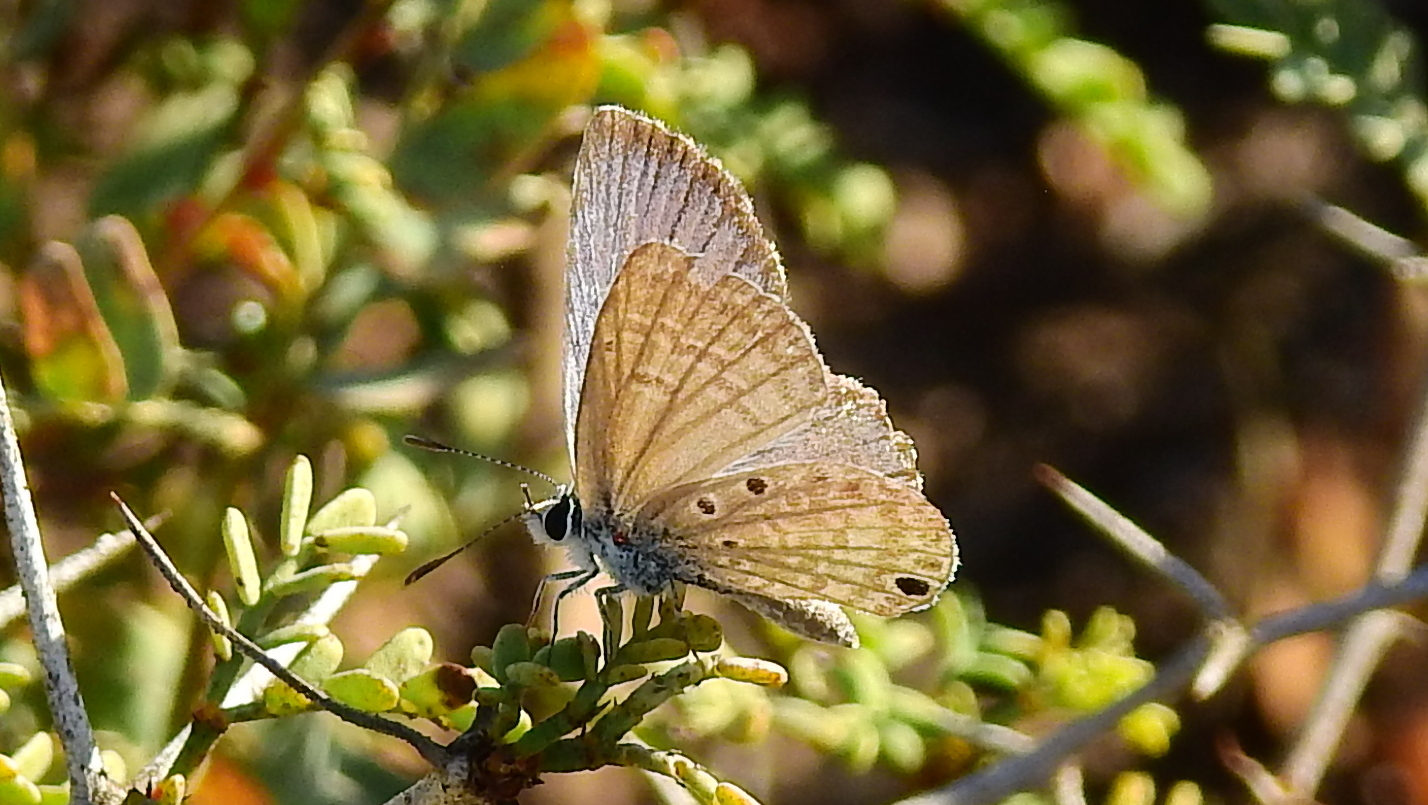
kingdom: Animalia
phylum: Arthropoda
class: Insecta
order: Lepidoptera
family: Lycaenidae
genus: Hemiargus
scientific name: Hemiargus hanno
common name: Common blue
